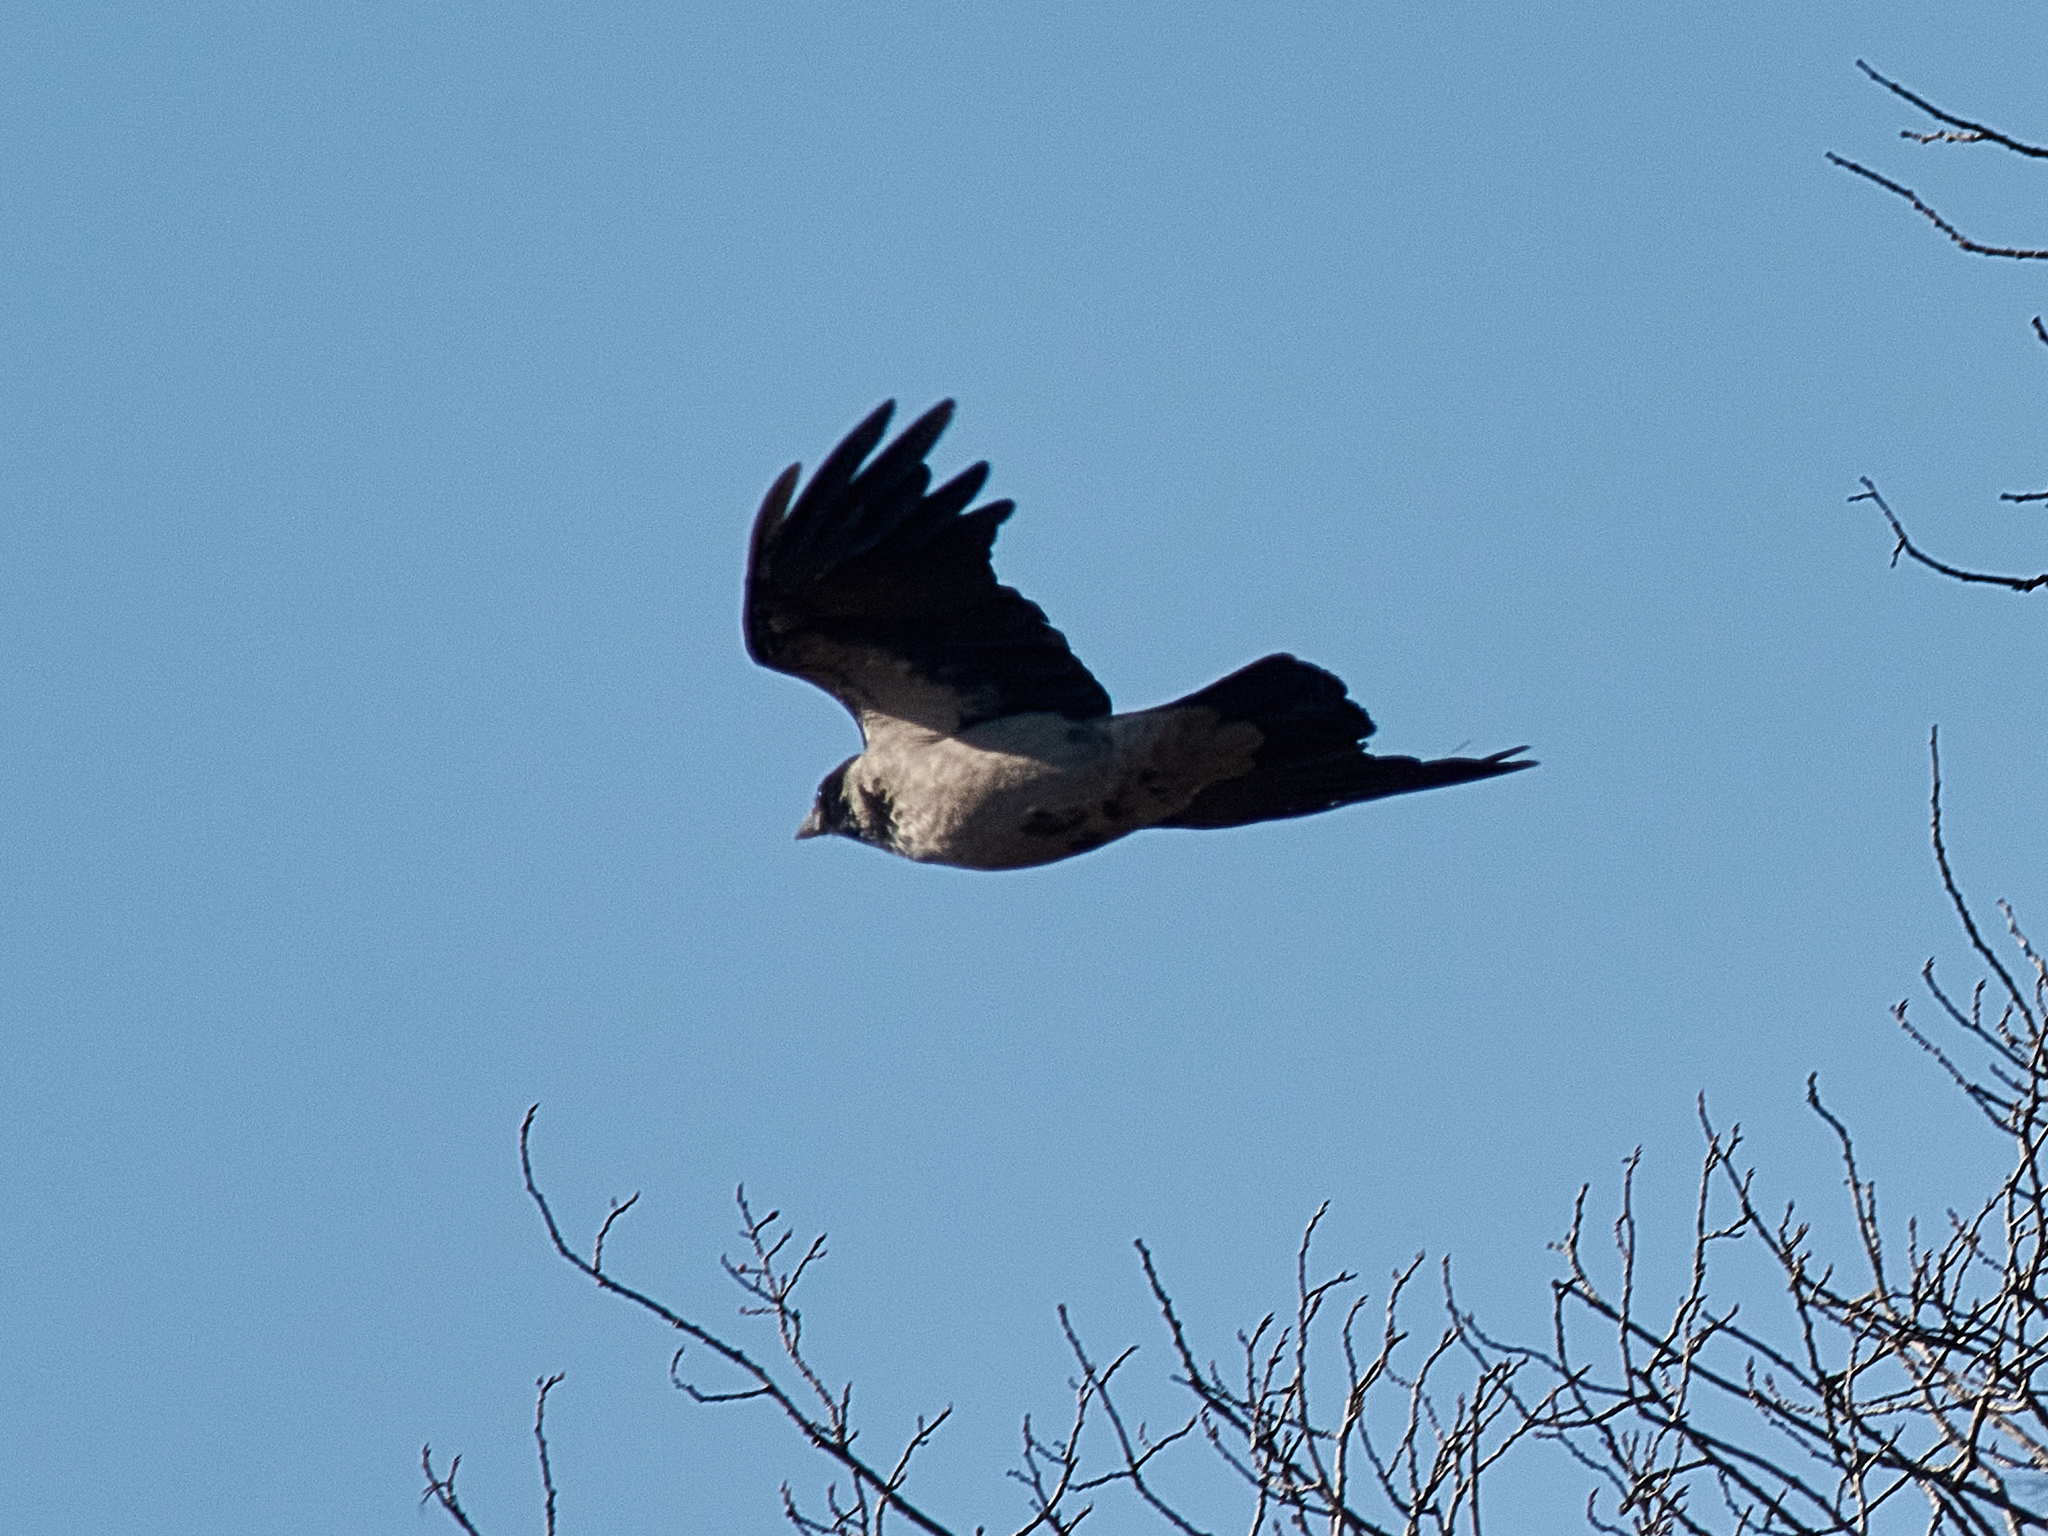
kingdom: Animalia
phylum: Chordata
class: Aves
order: Passeriformes
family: Corvidae
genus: Corvus
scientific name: Corvus cornix
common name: Hooded crow
